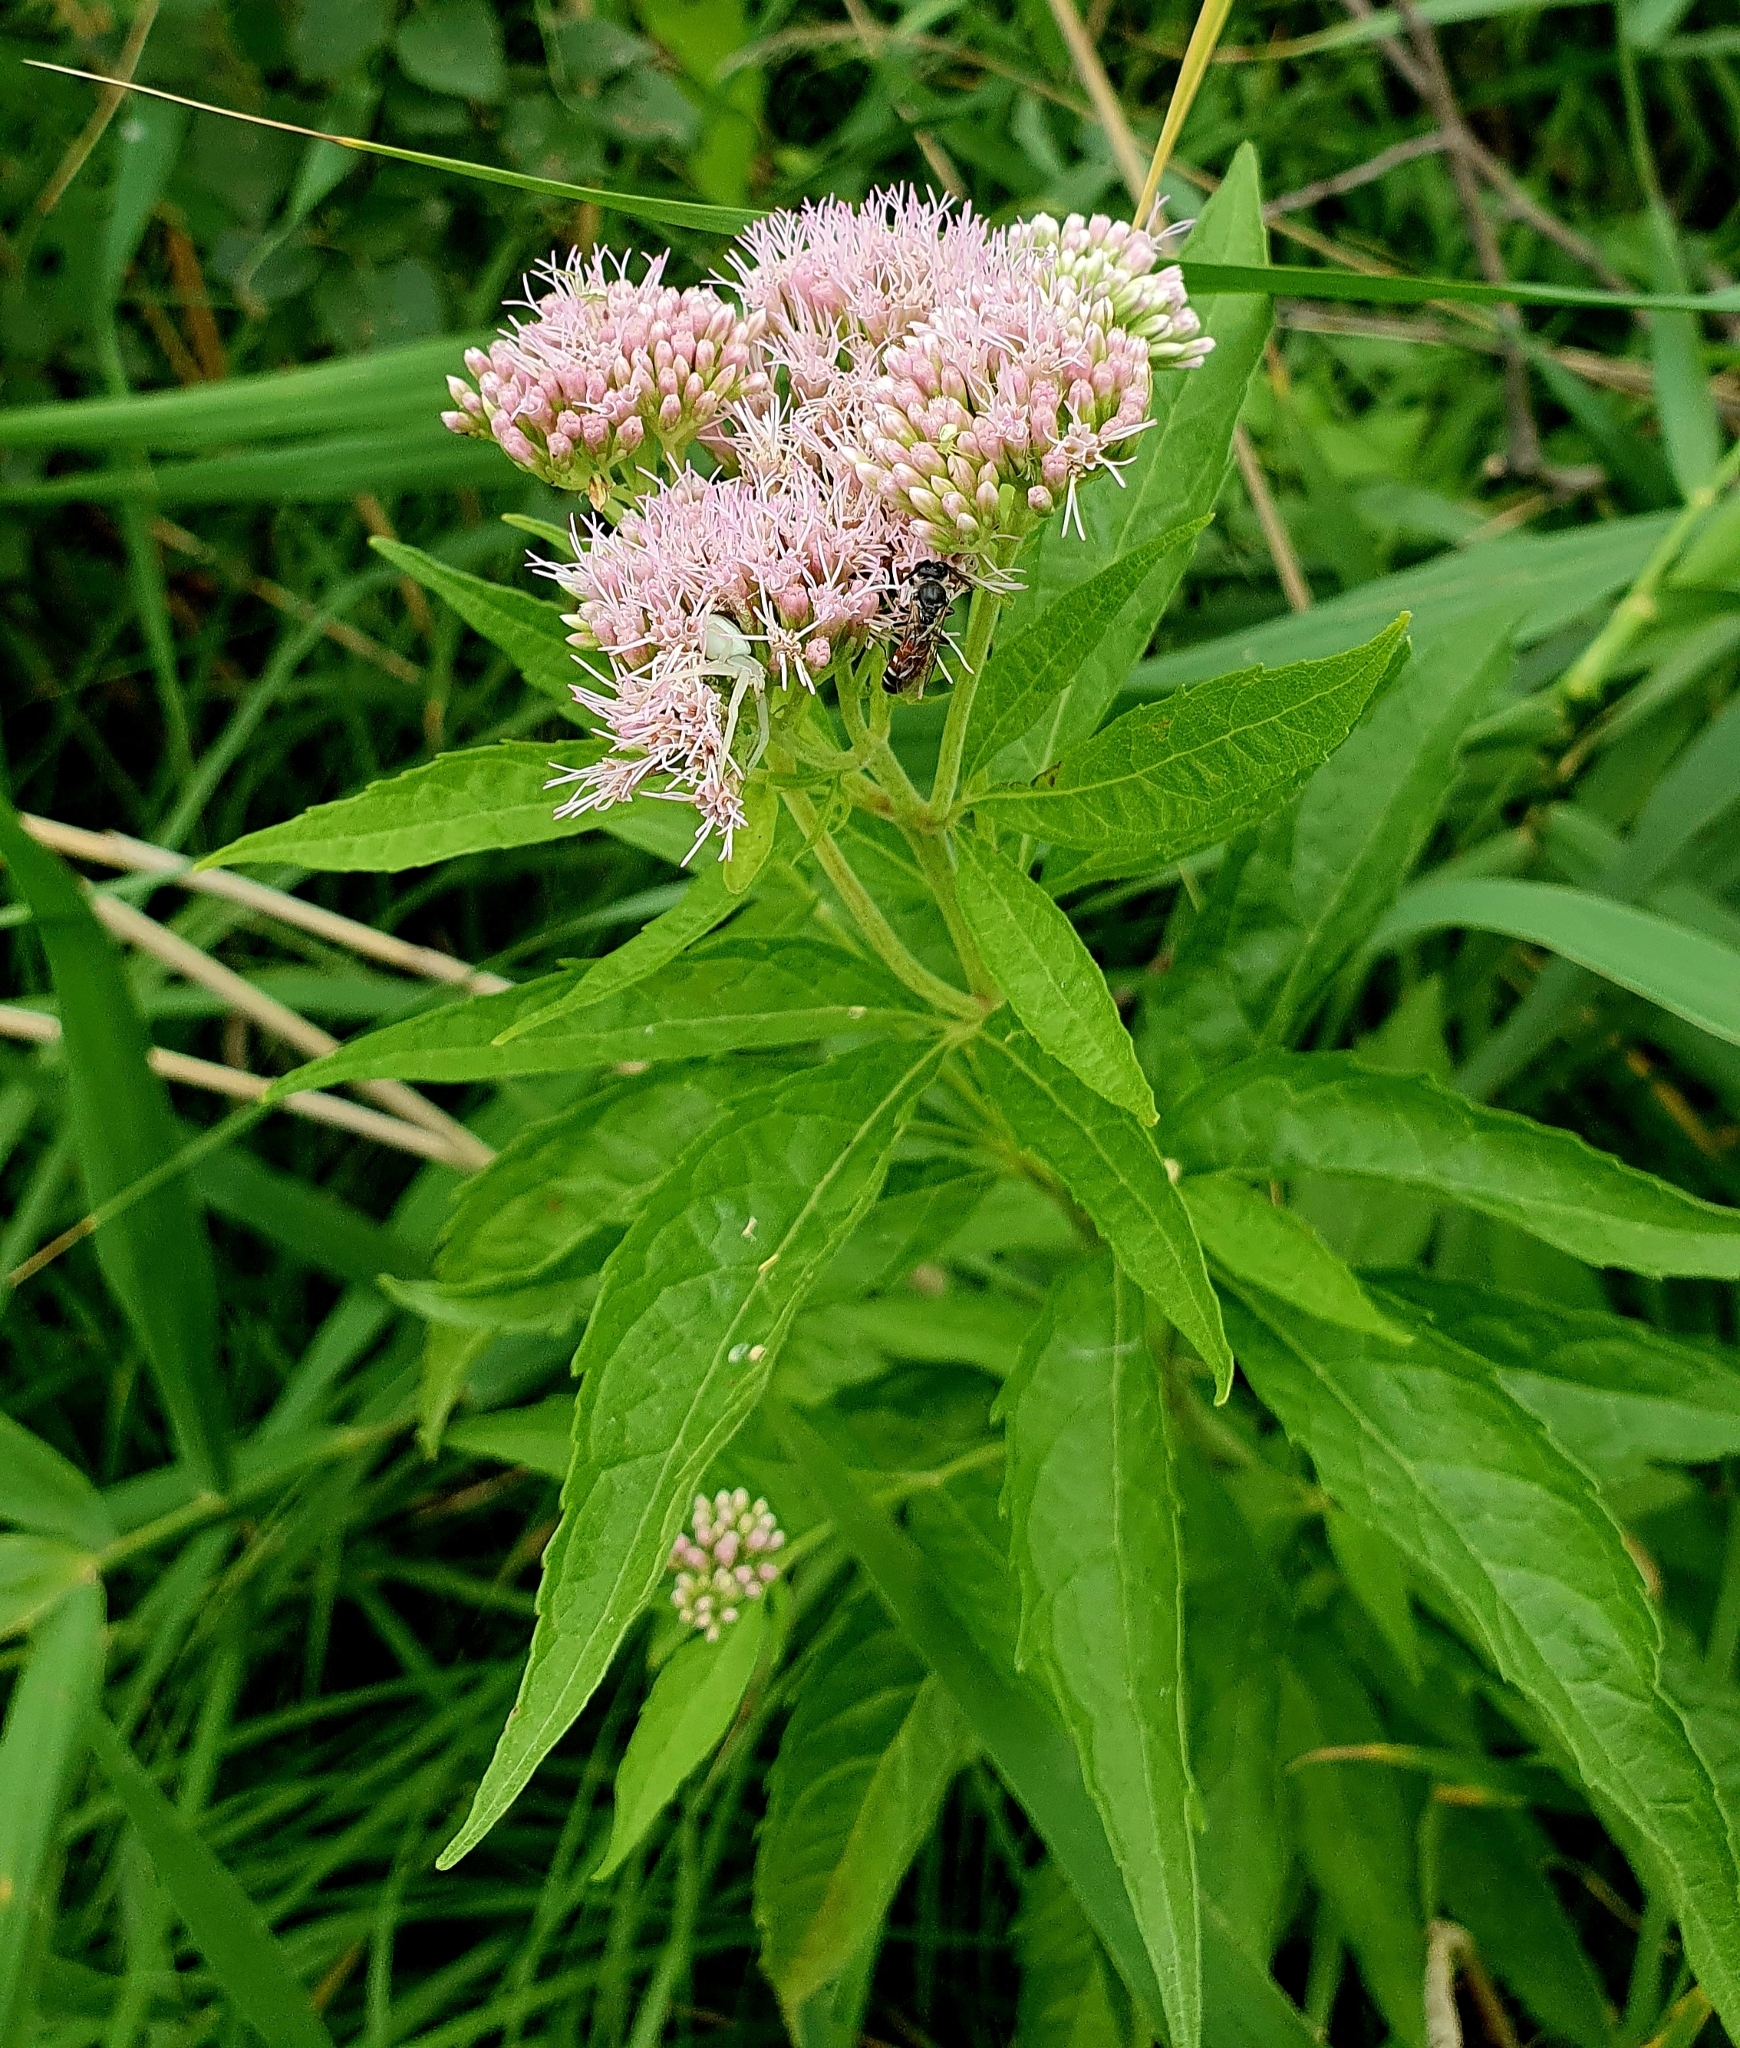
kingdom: Plantae
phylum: Tracheophyta
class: Magnoliopsida
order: Asterales
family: Asteraceae
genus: Eupatorium
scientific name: Eupatorium cannabinum
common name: Hemp-agrimony
